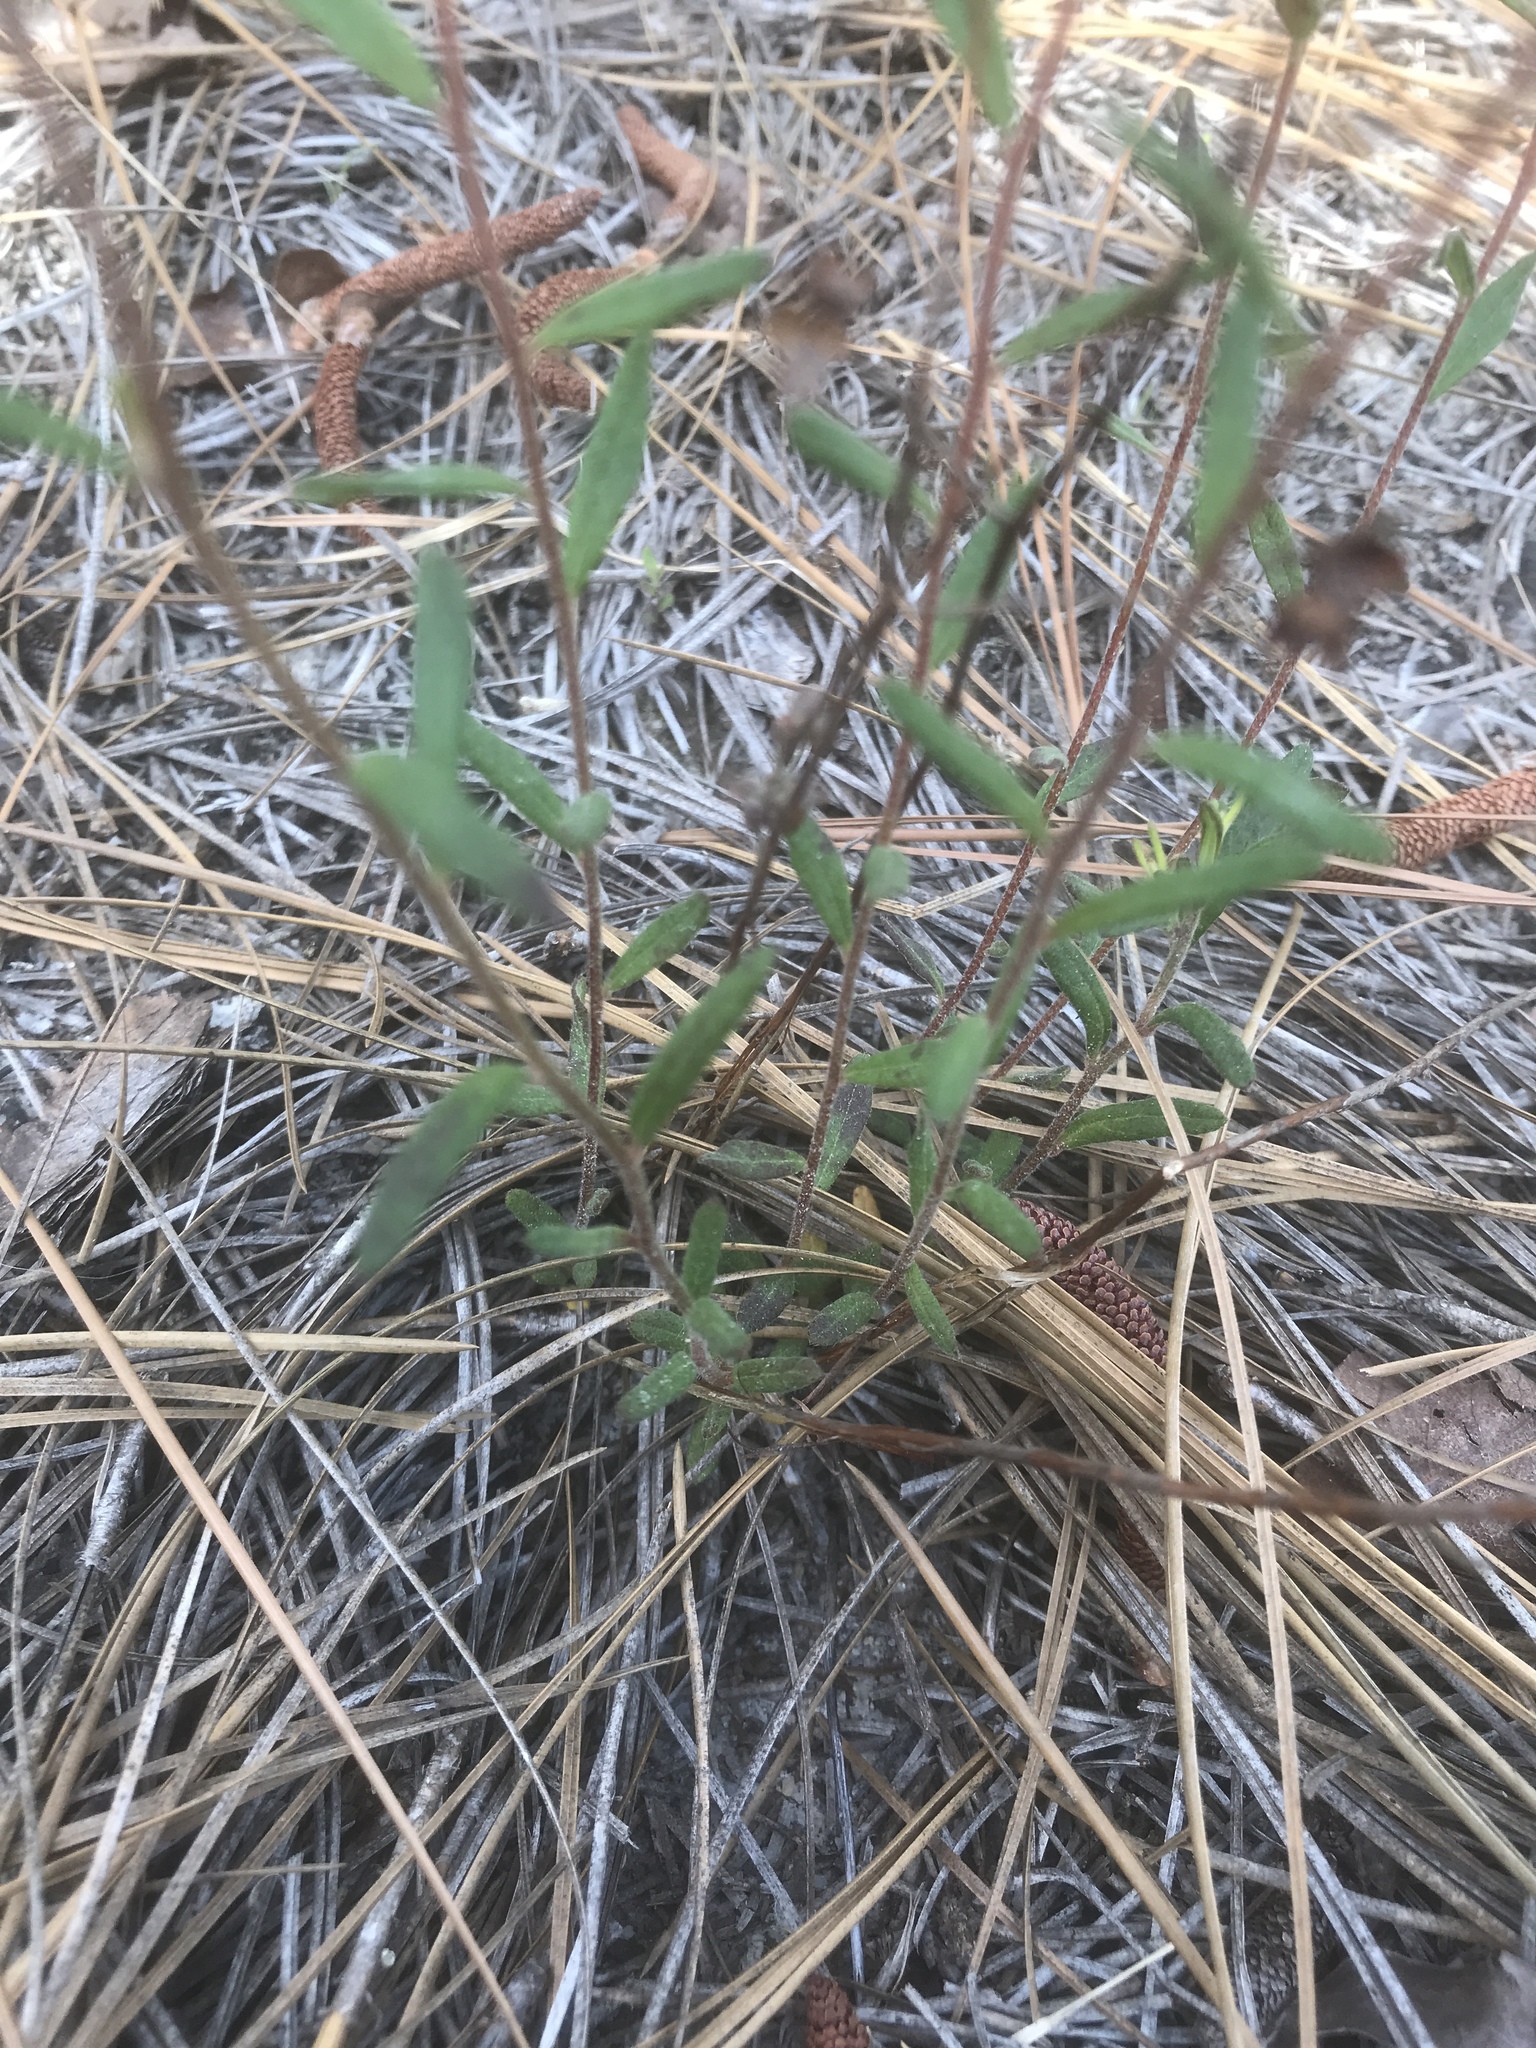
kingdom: Plantae
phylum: Tracheophyta
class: Magnoliopsida
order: Malvales
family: Cistaceae
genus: Crocanthemum
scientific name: Crocanthemum canadense
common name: Canada frostweed
